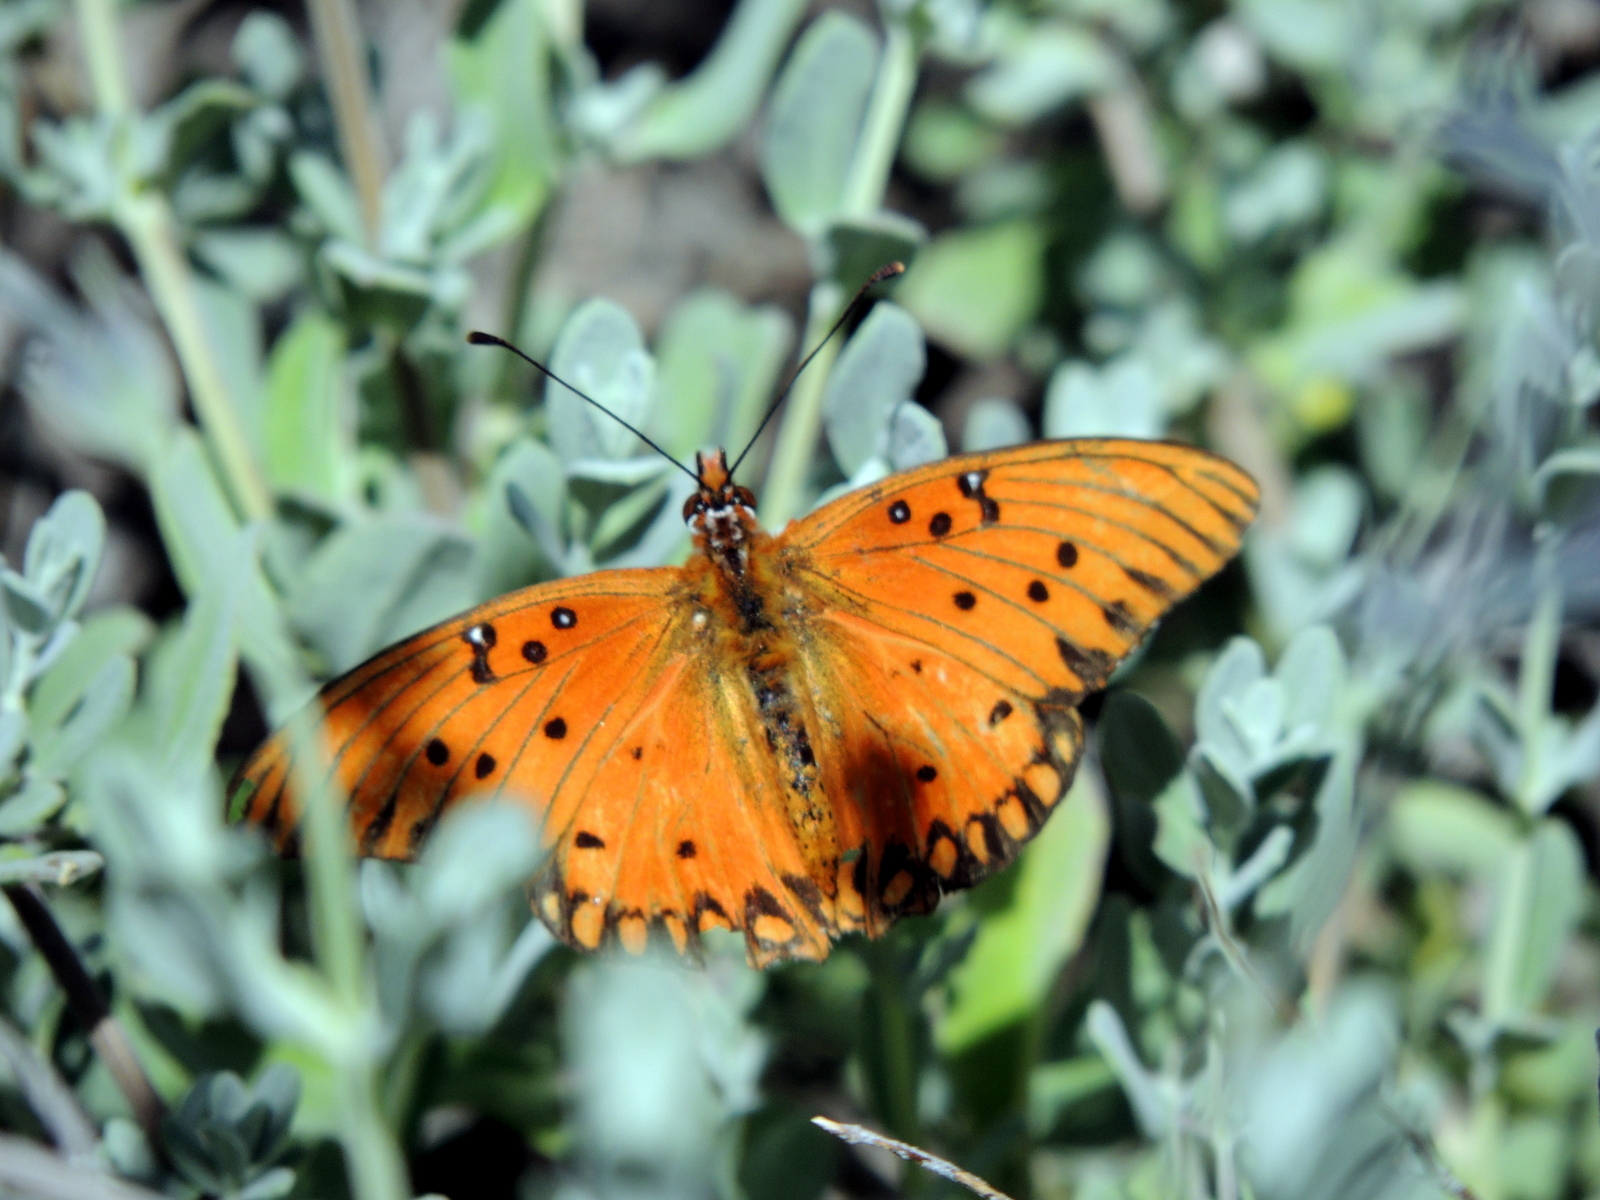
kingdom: Animalia
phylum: Arthropoda
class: Insecta
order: Lepidoptera
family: Nymphalidae
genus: Dione
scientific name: Dione vanillae
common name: Gulf fritillary
